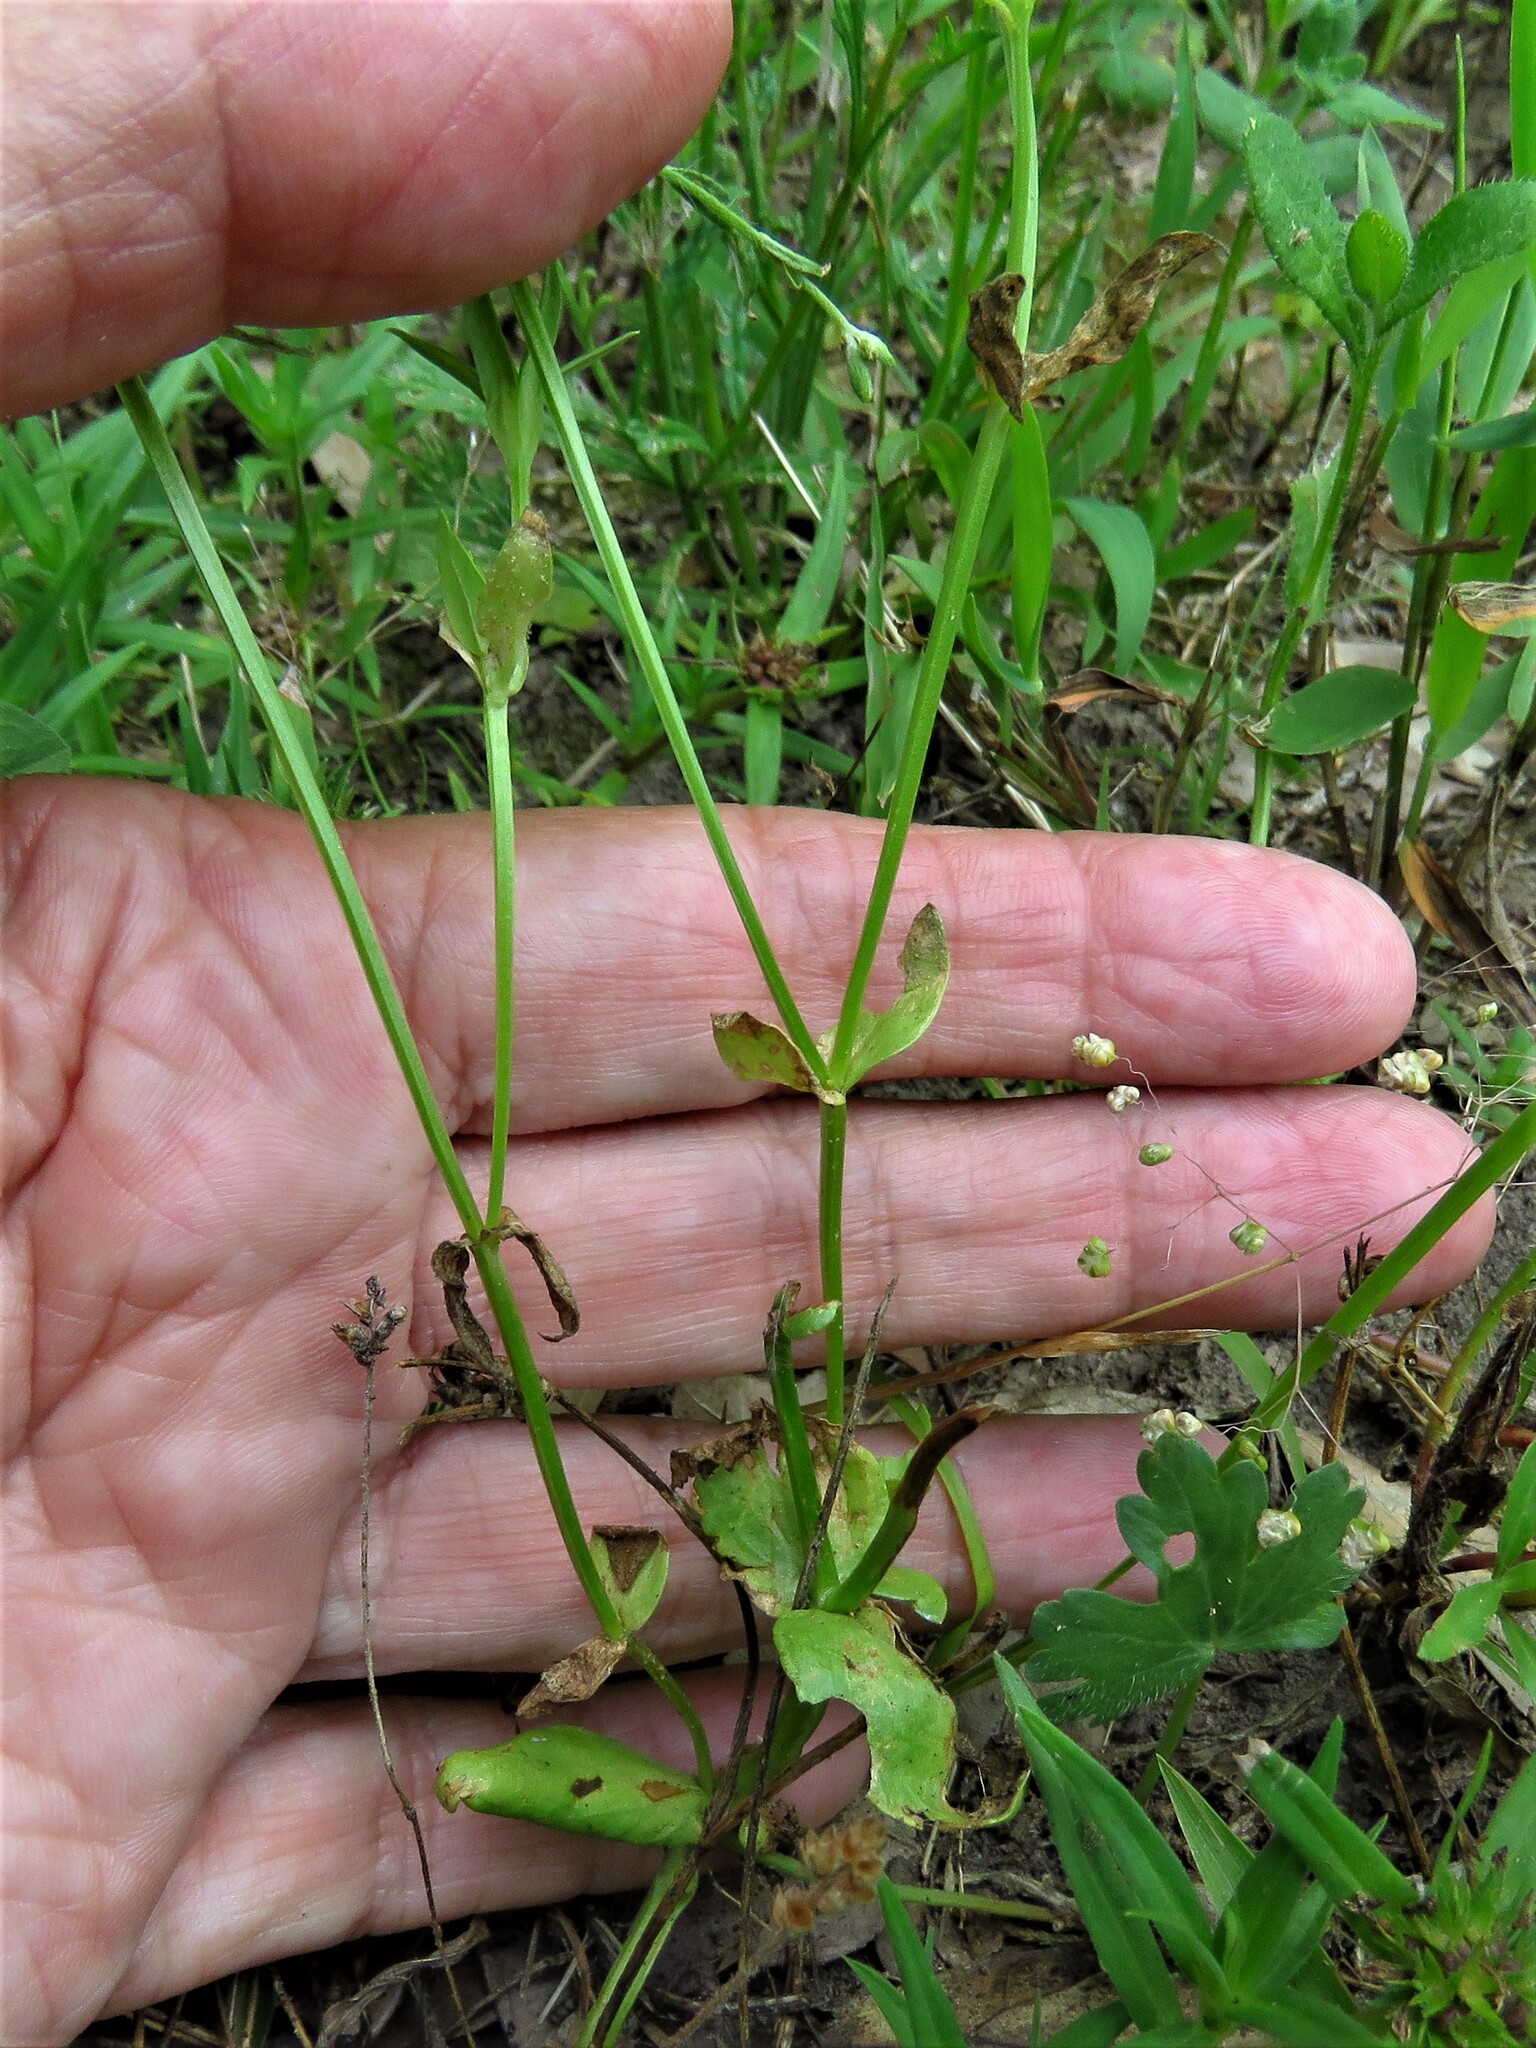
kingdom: Plantae
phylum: Tracheophyta
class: Magnoliopsida
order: Gentianales
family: Gentianaceae
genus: Sabatia
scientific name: Sabatia campestris
